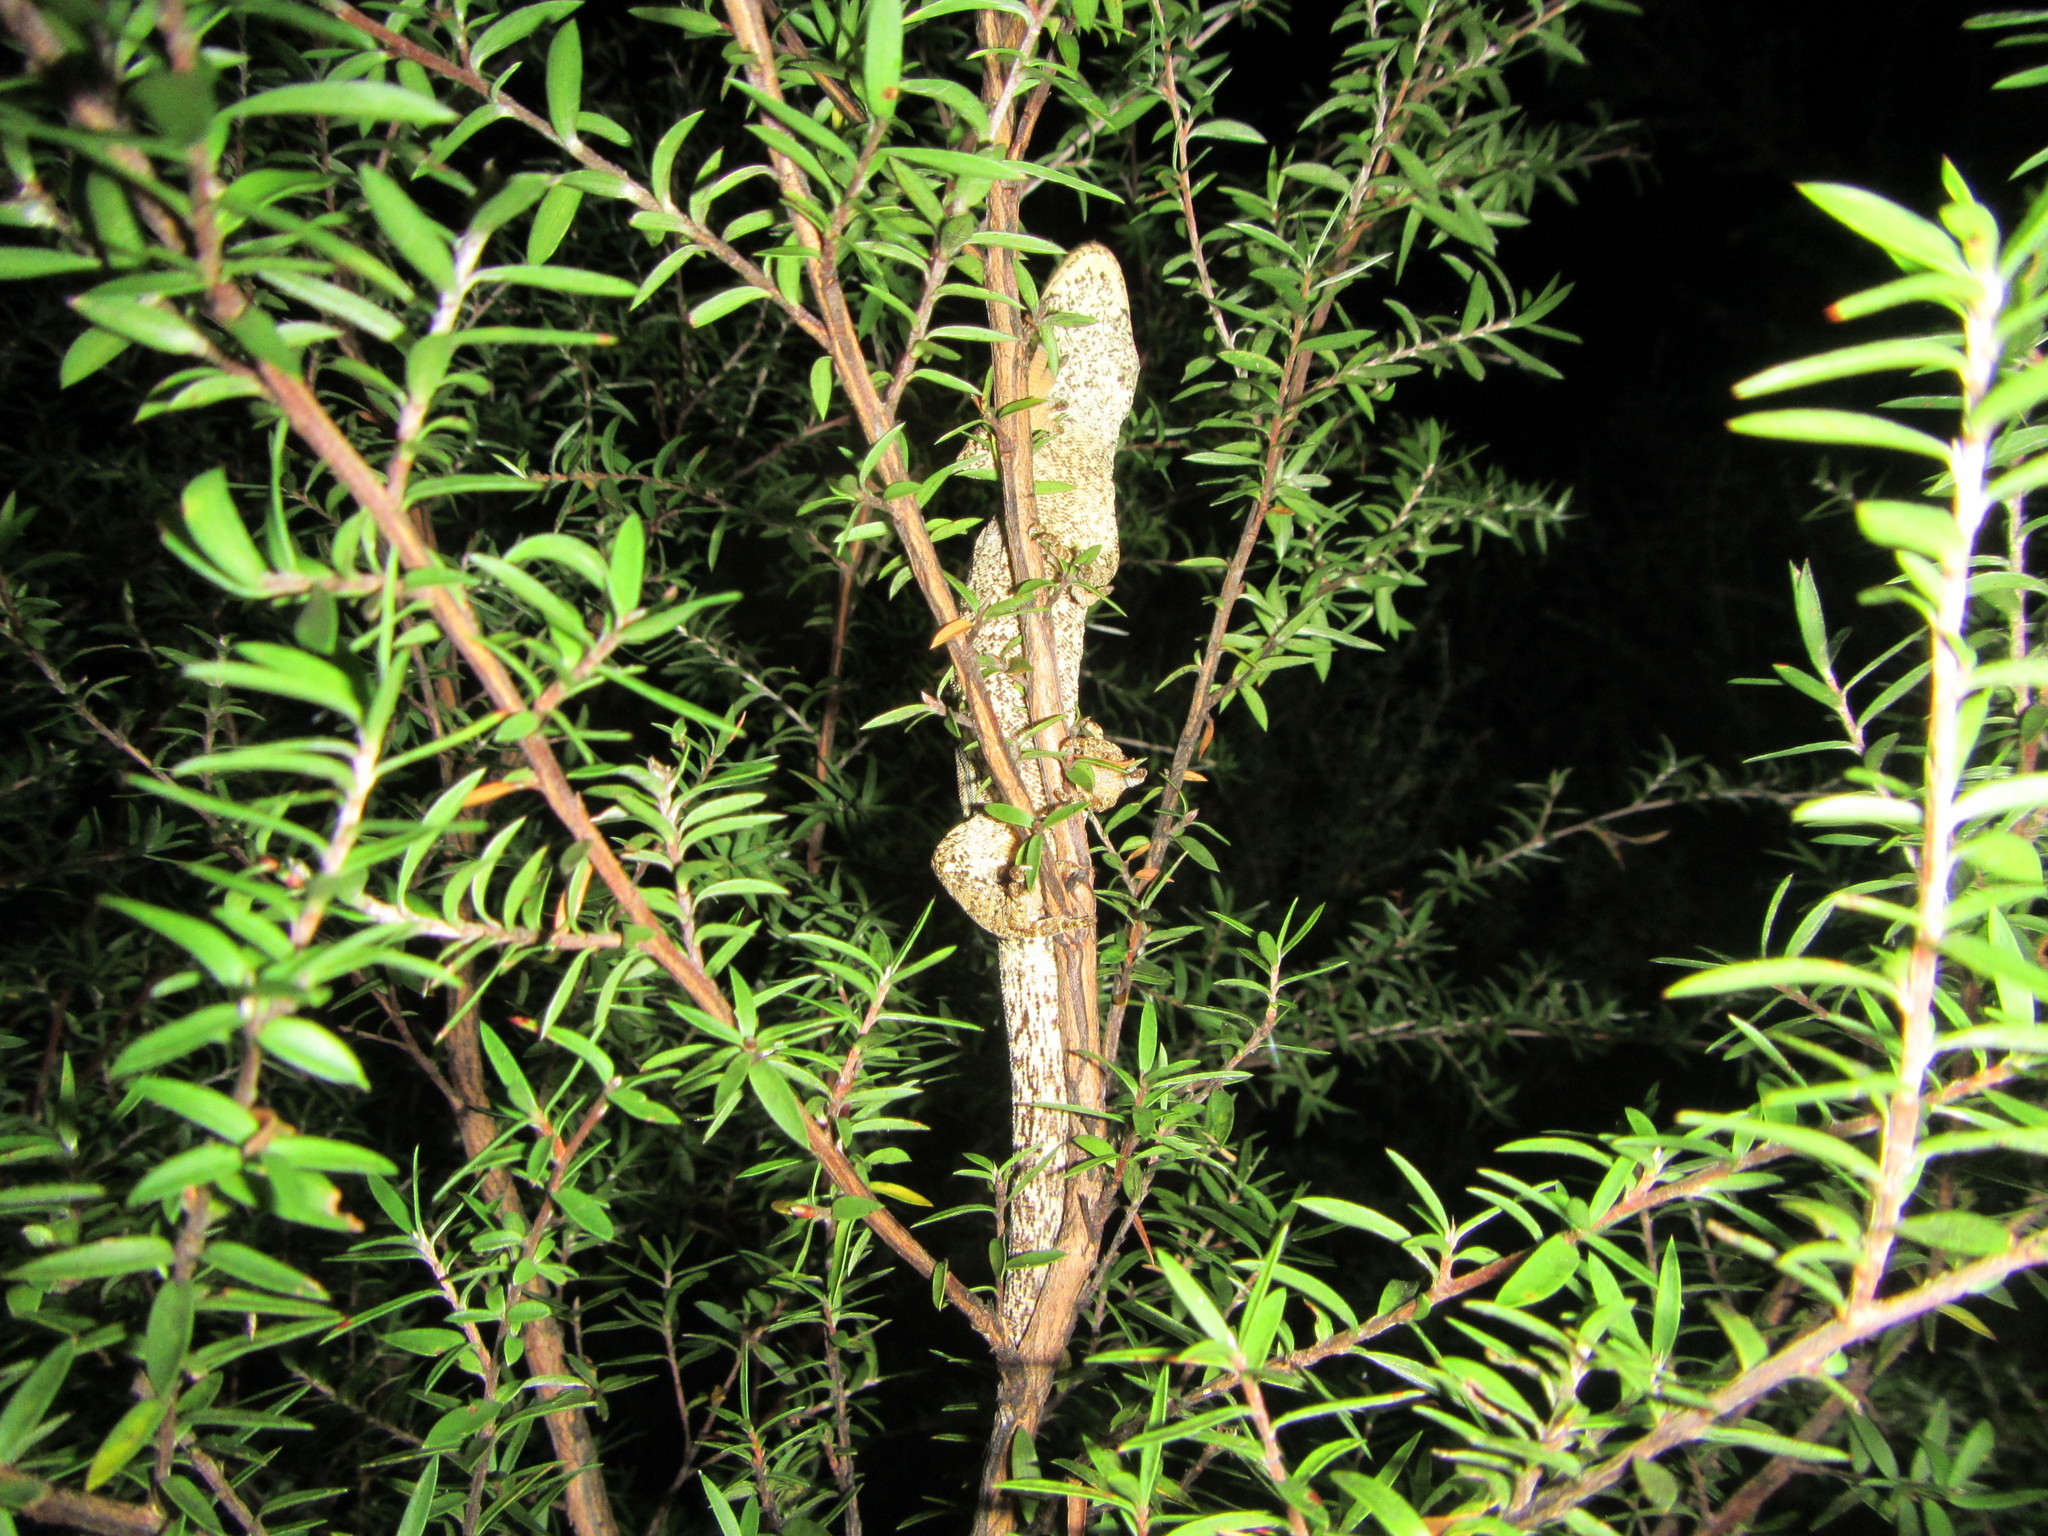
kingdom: Animalia
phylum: Chordata
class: Squamata
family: Diplodactylidae
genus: Mokopirirakau
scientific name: Mokopirirakau granulatus
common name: Forest gecko
